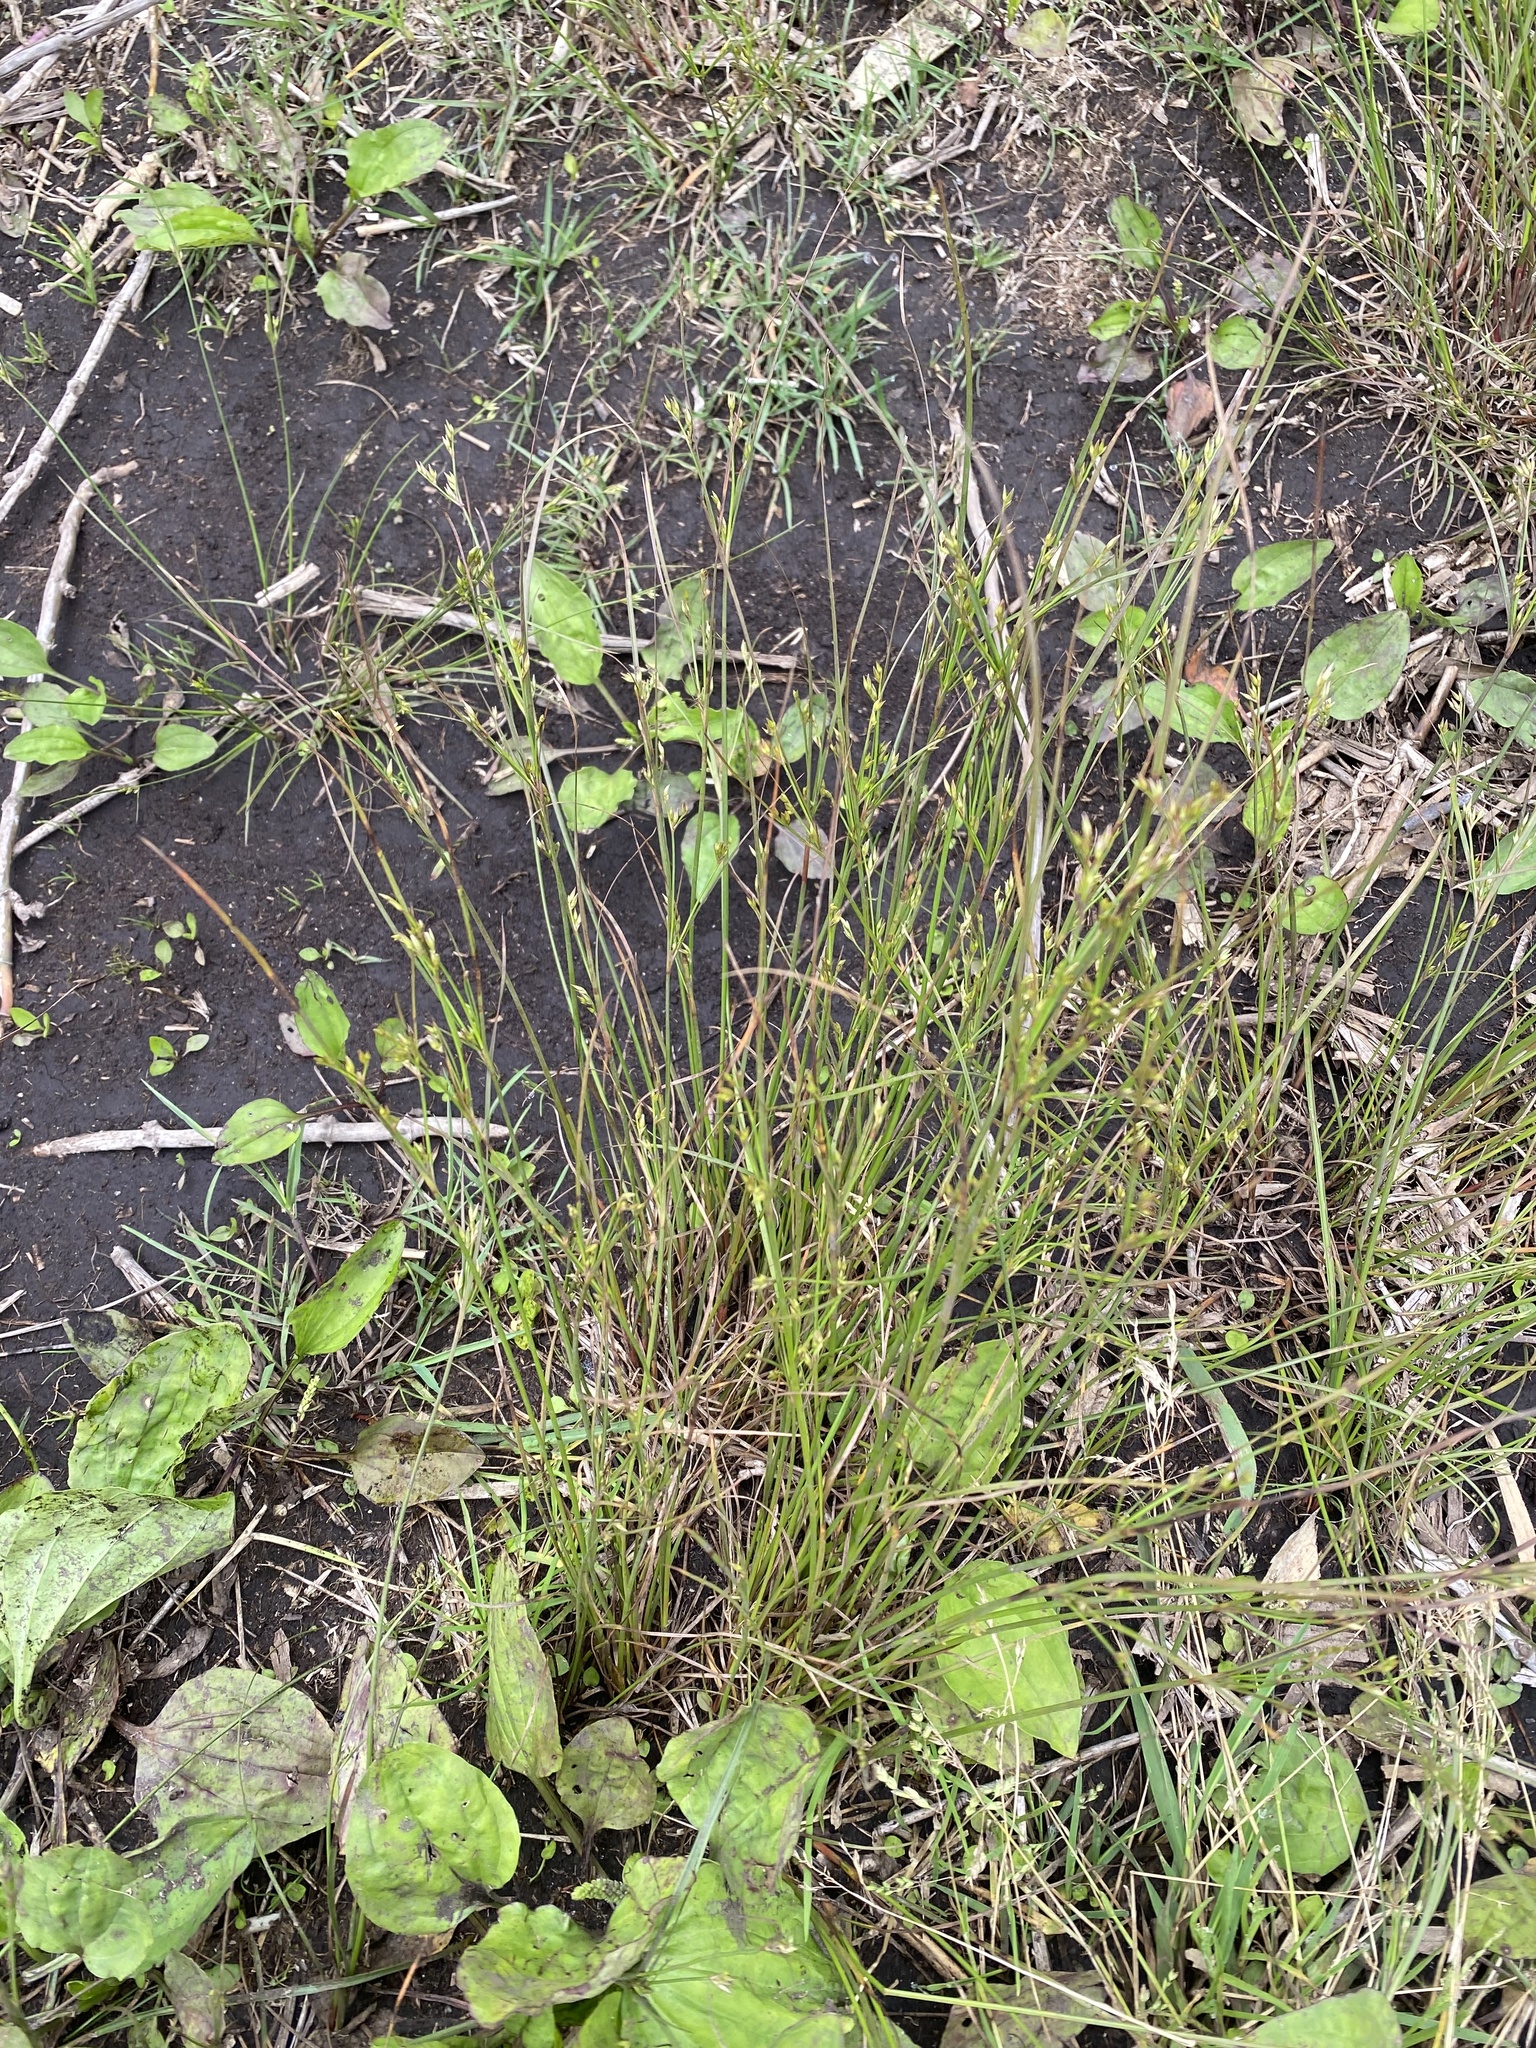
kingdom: Plantae
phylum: Tracheophyta
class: Liliopsida
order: Poales
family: Juncaceae
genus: Juncus
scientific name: Juncus tenuis
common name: Slender rush
